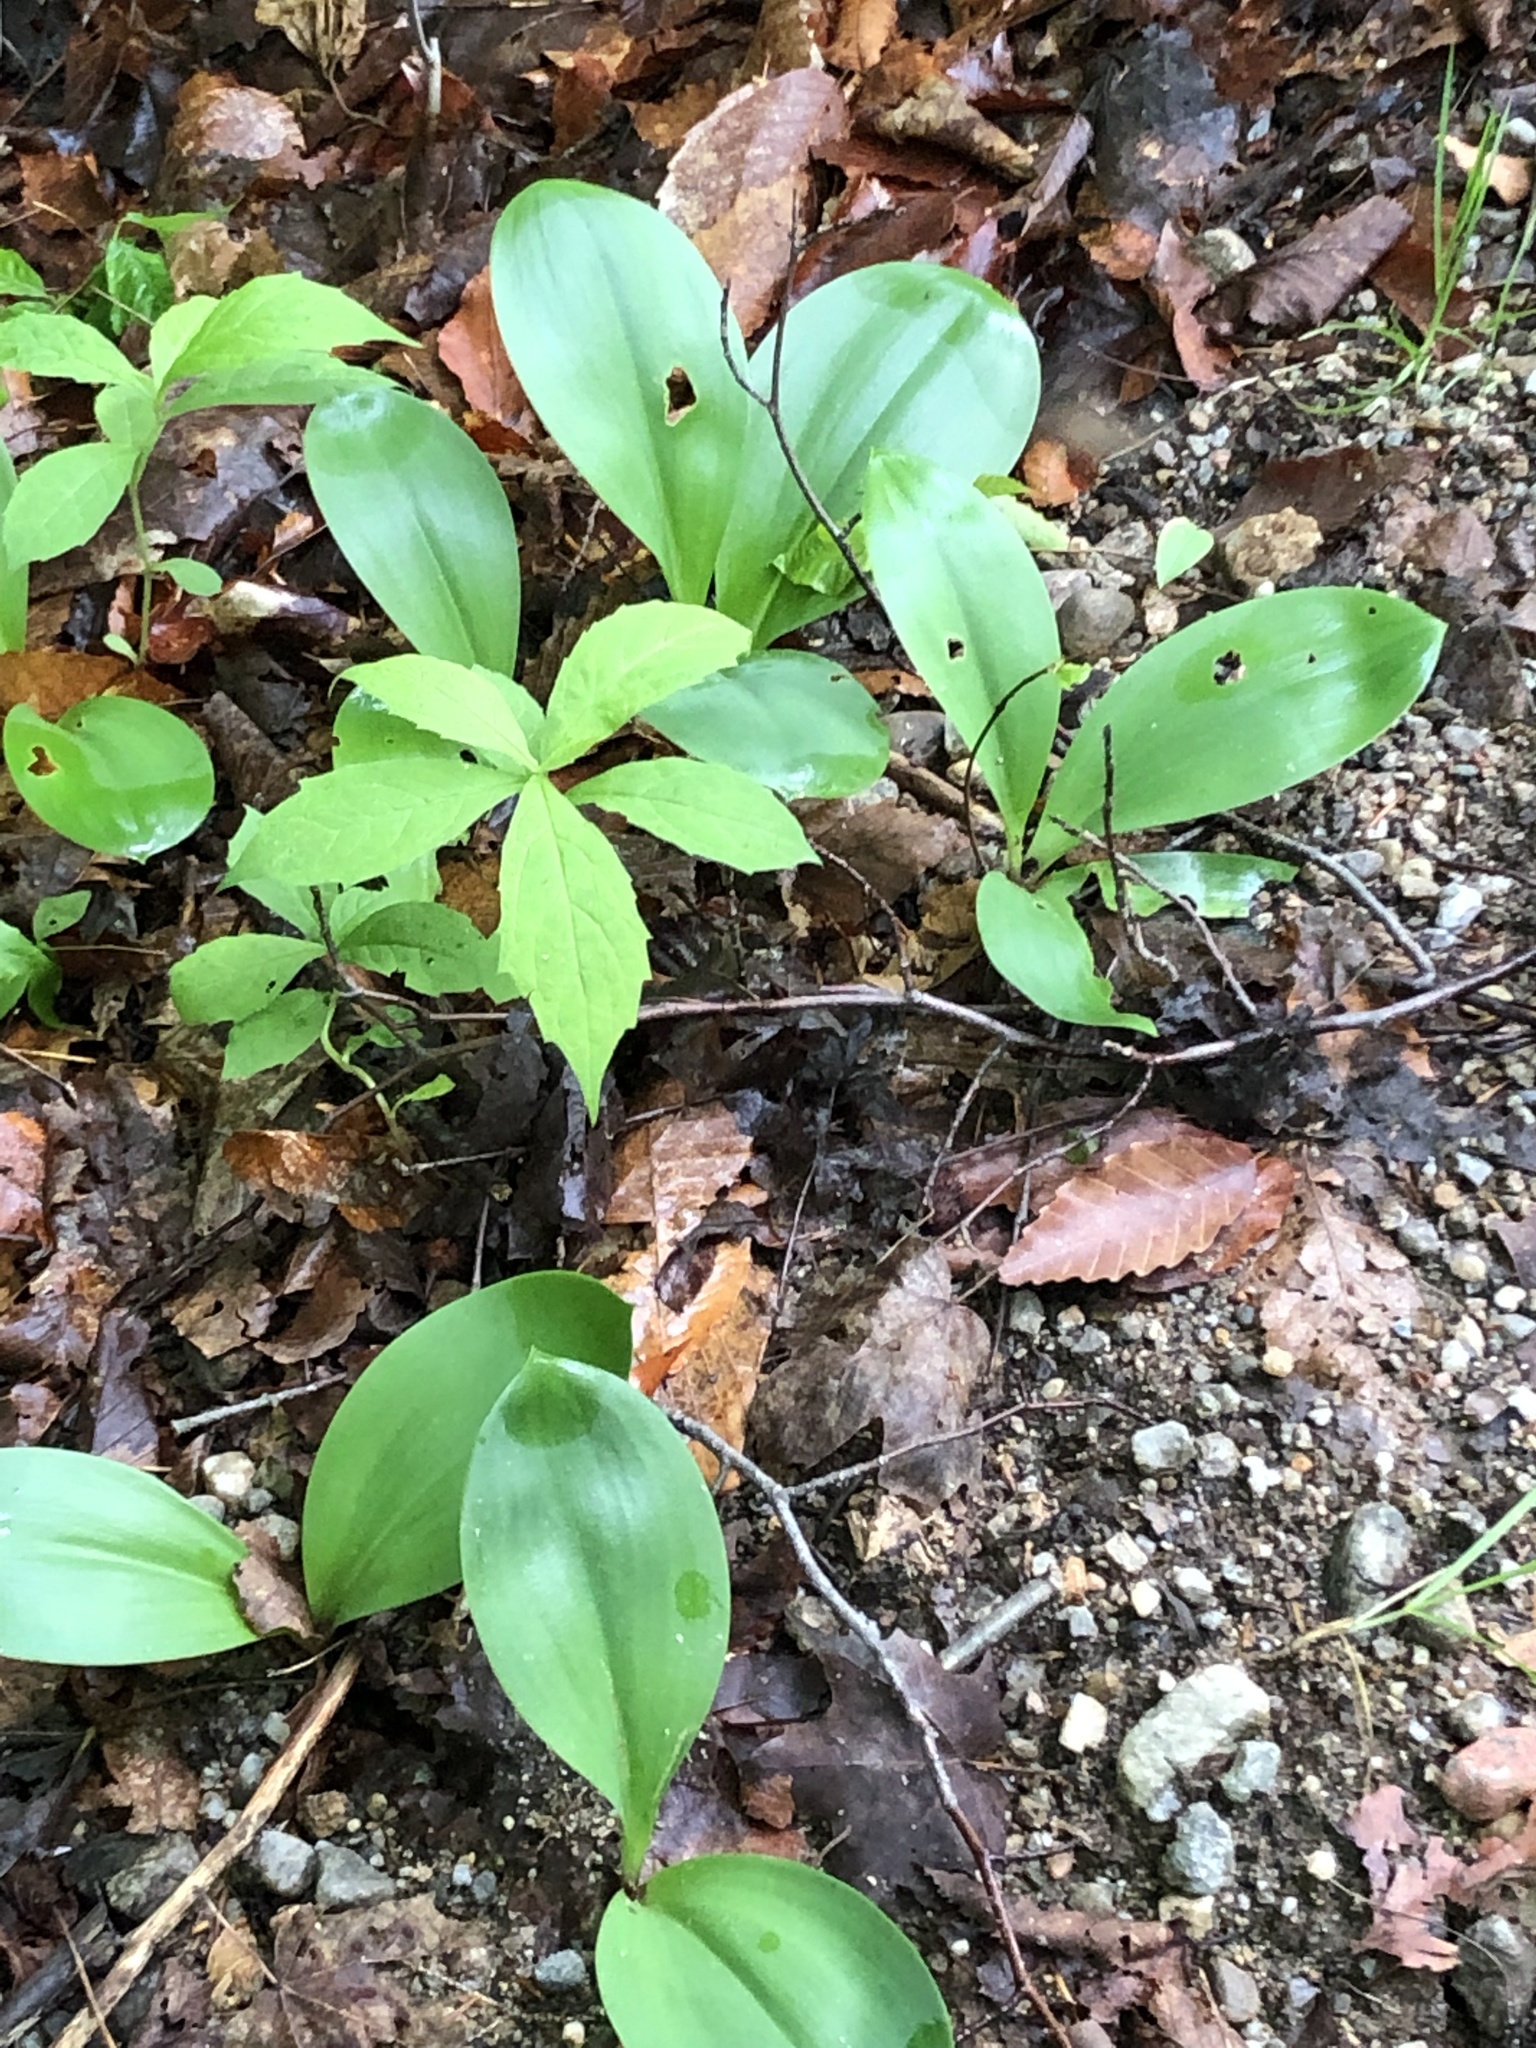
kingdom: Plantae
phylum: Tracheophyta
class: Liliopsida
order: Liliales
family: Liliaceae
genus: Clintonia
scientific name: Clintonia borealis
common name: Yellow clintonia
